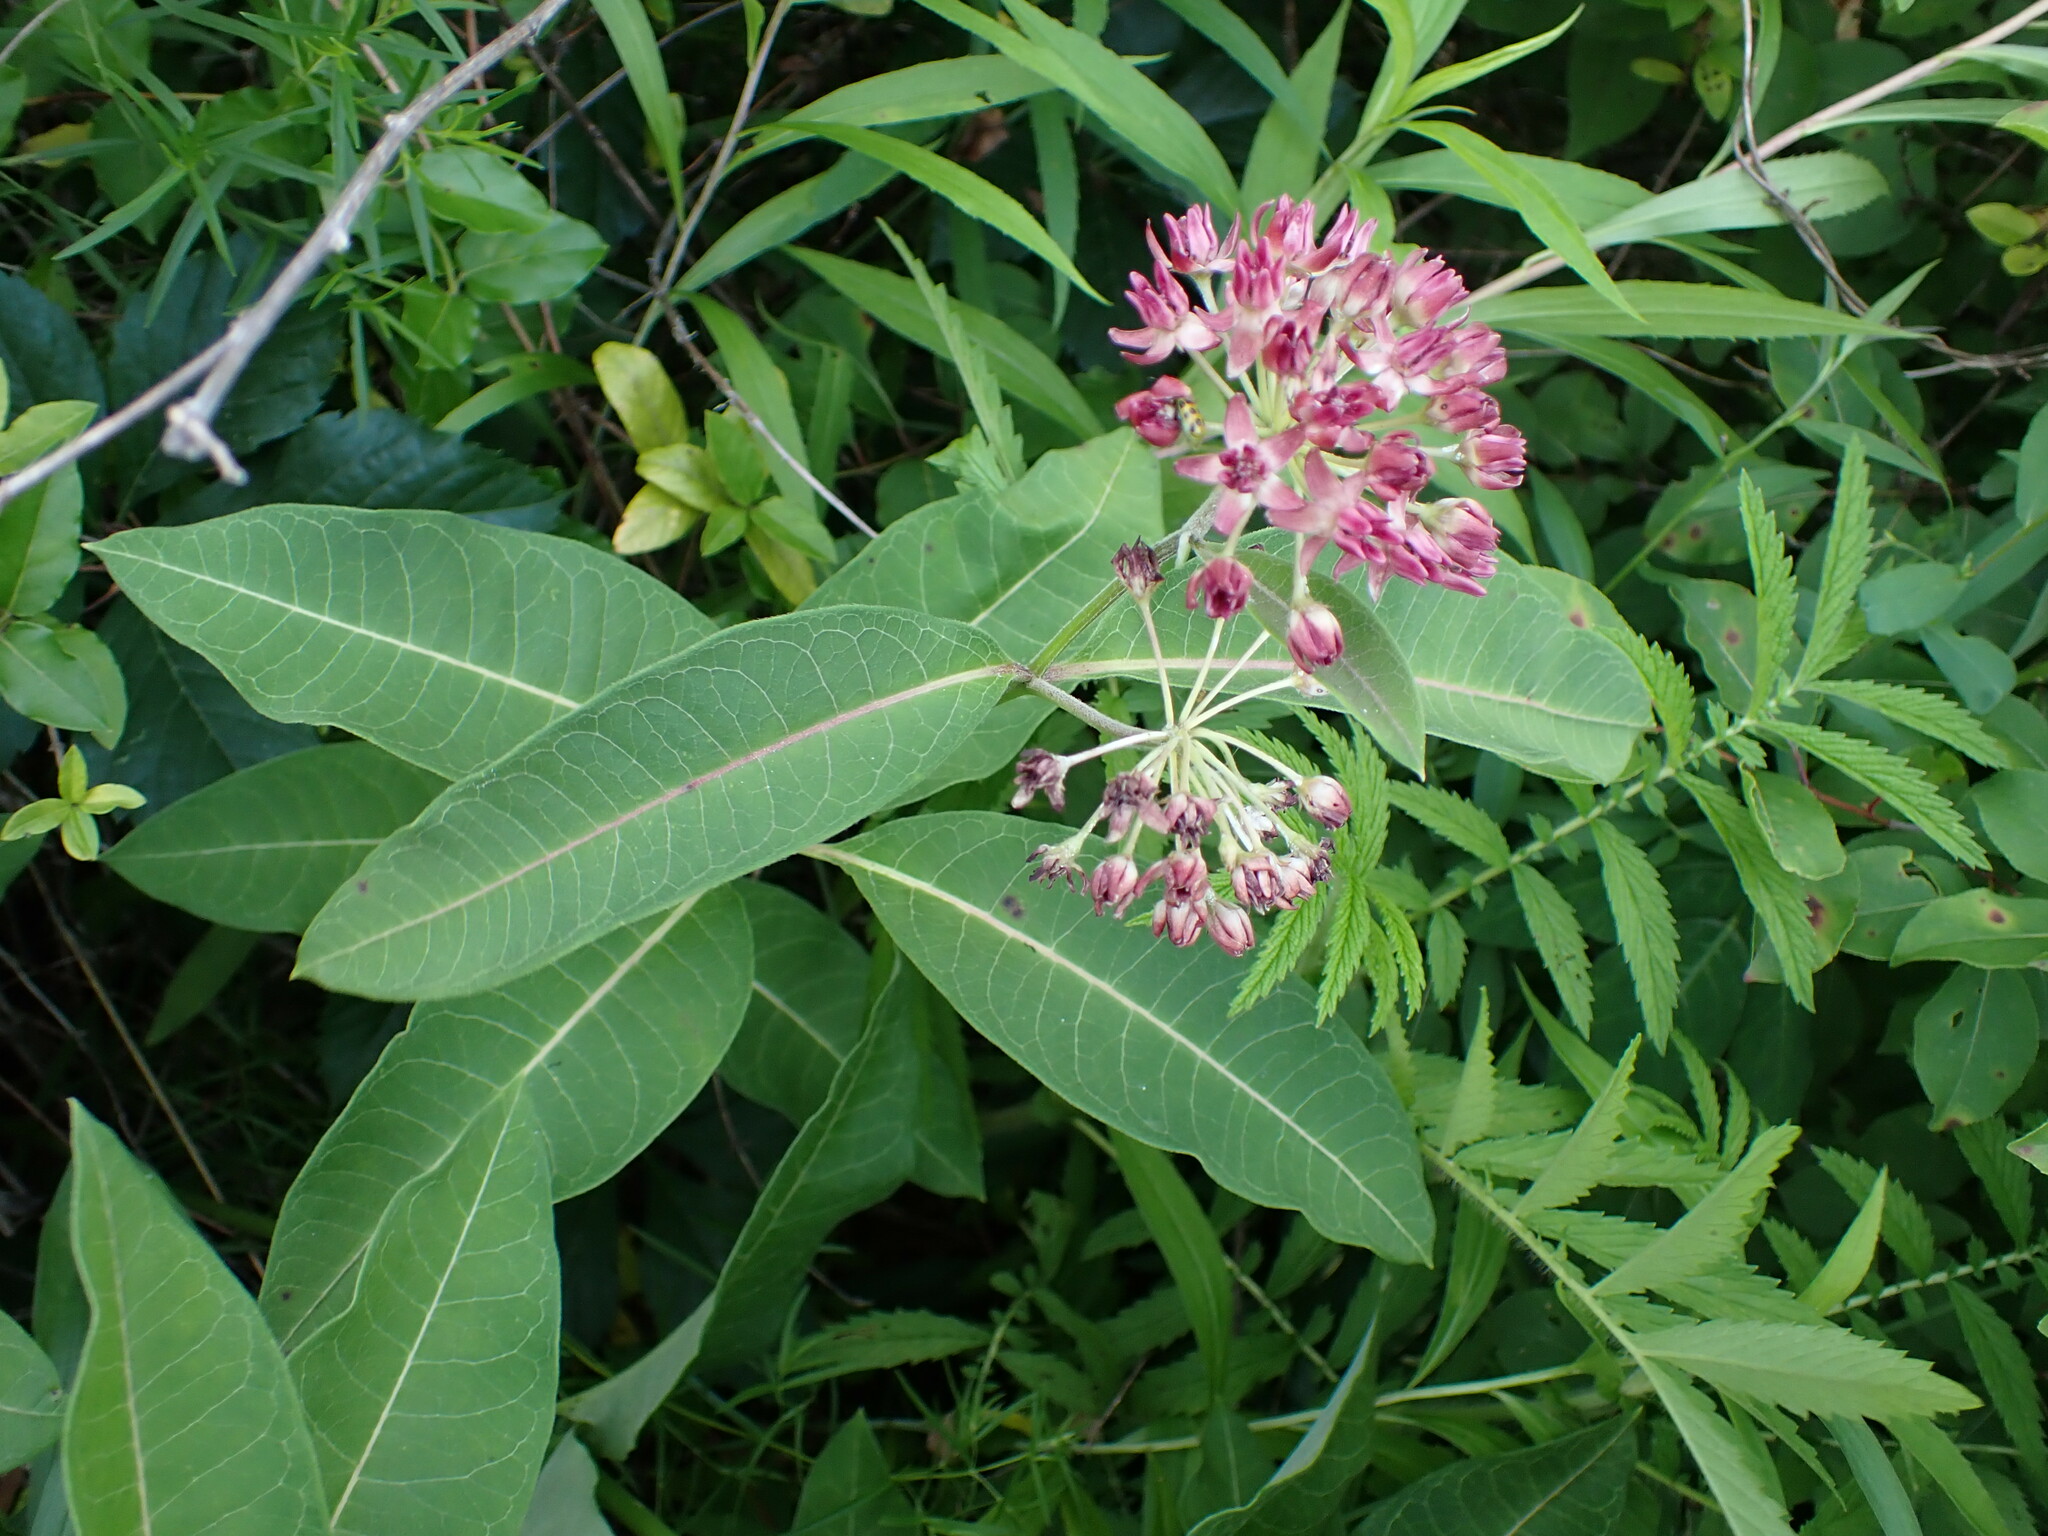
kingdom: Plantae
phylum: Tracheophyta
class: Magnoliopsida
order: Gentianales
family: Apocynaceae
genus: Asclepias
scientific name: Asclepias purpurascens
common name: Purple milkweed
